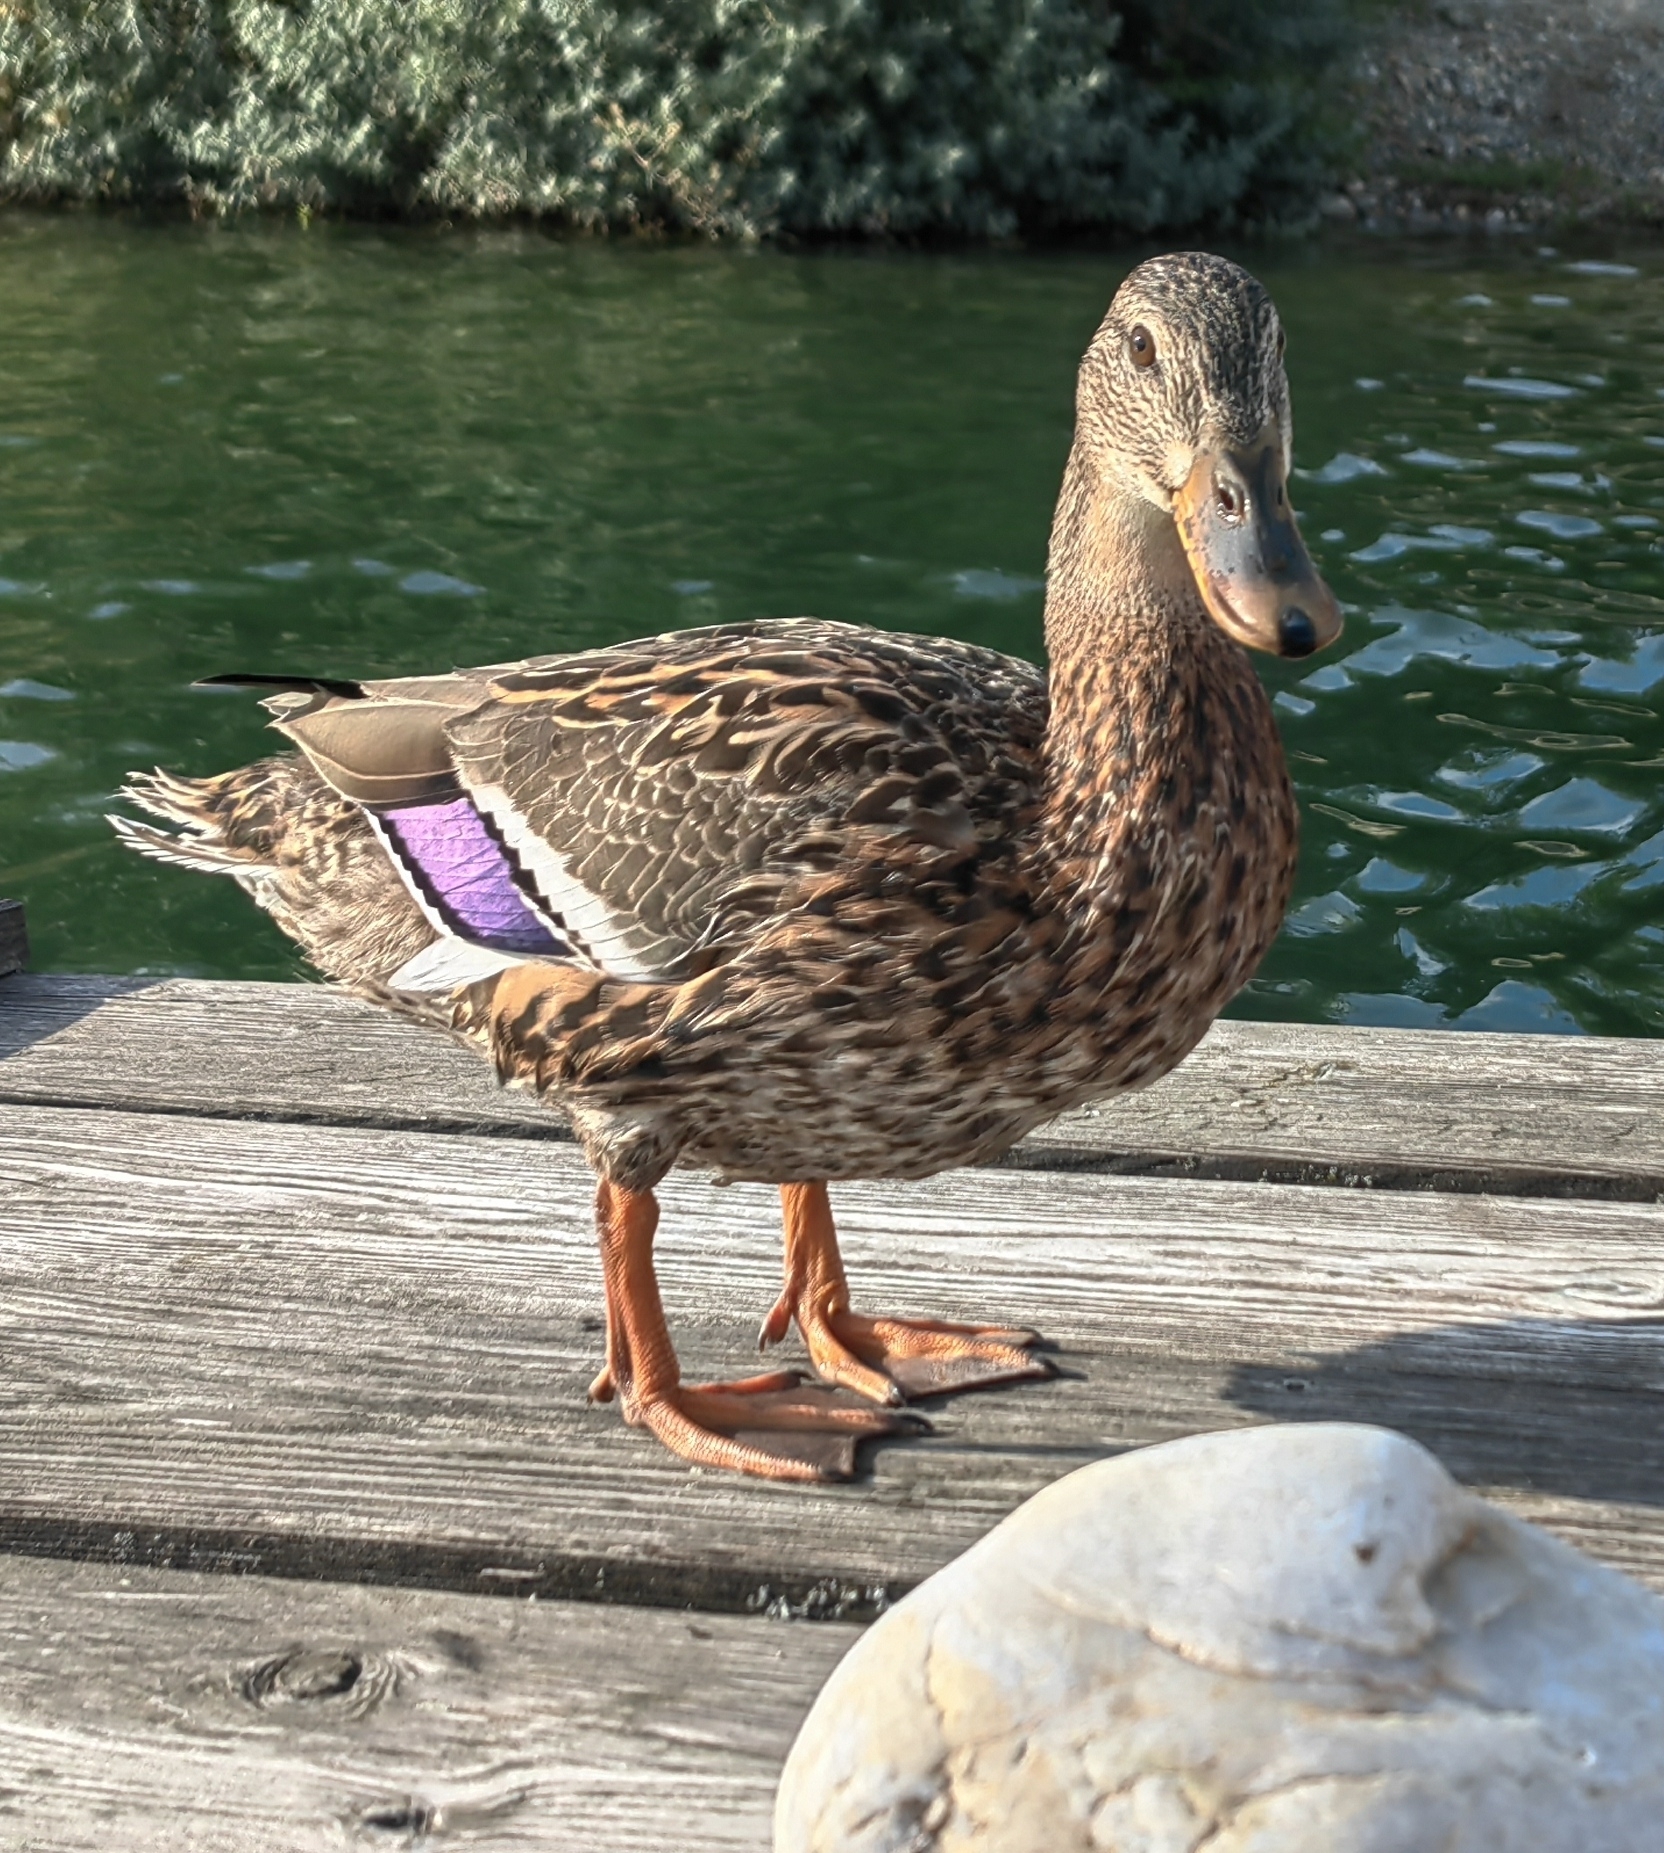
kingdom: Animalia
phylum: Chordata
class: Aves
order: Anseriformes
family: Anatidae
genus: Anas
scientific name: Anas platyrhynchos
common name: Mallard
